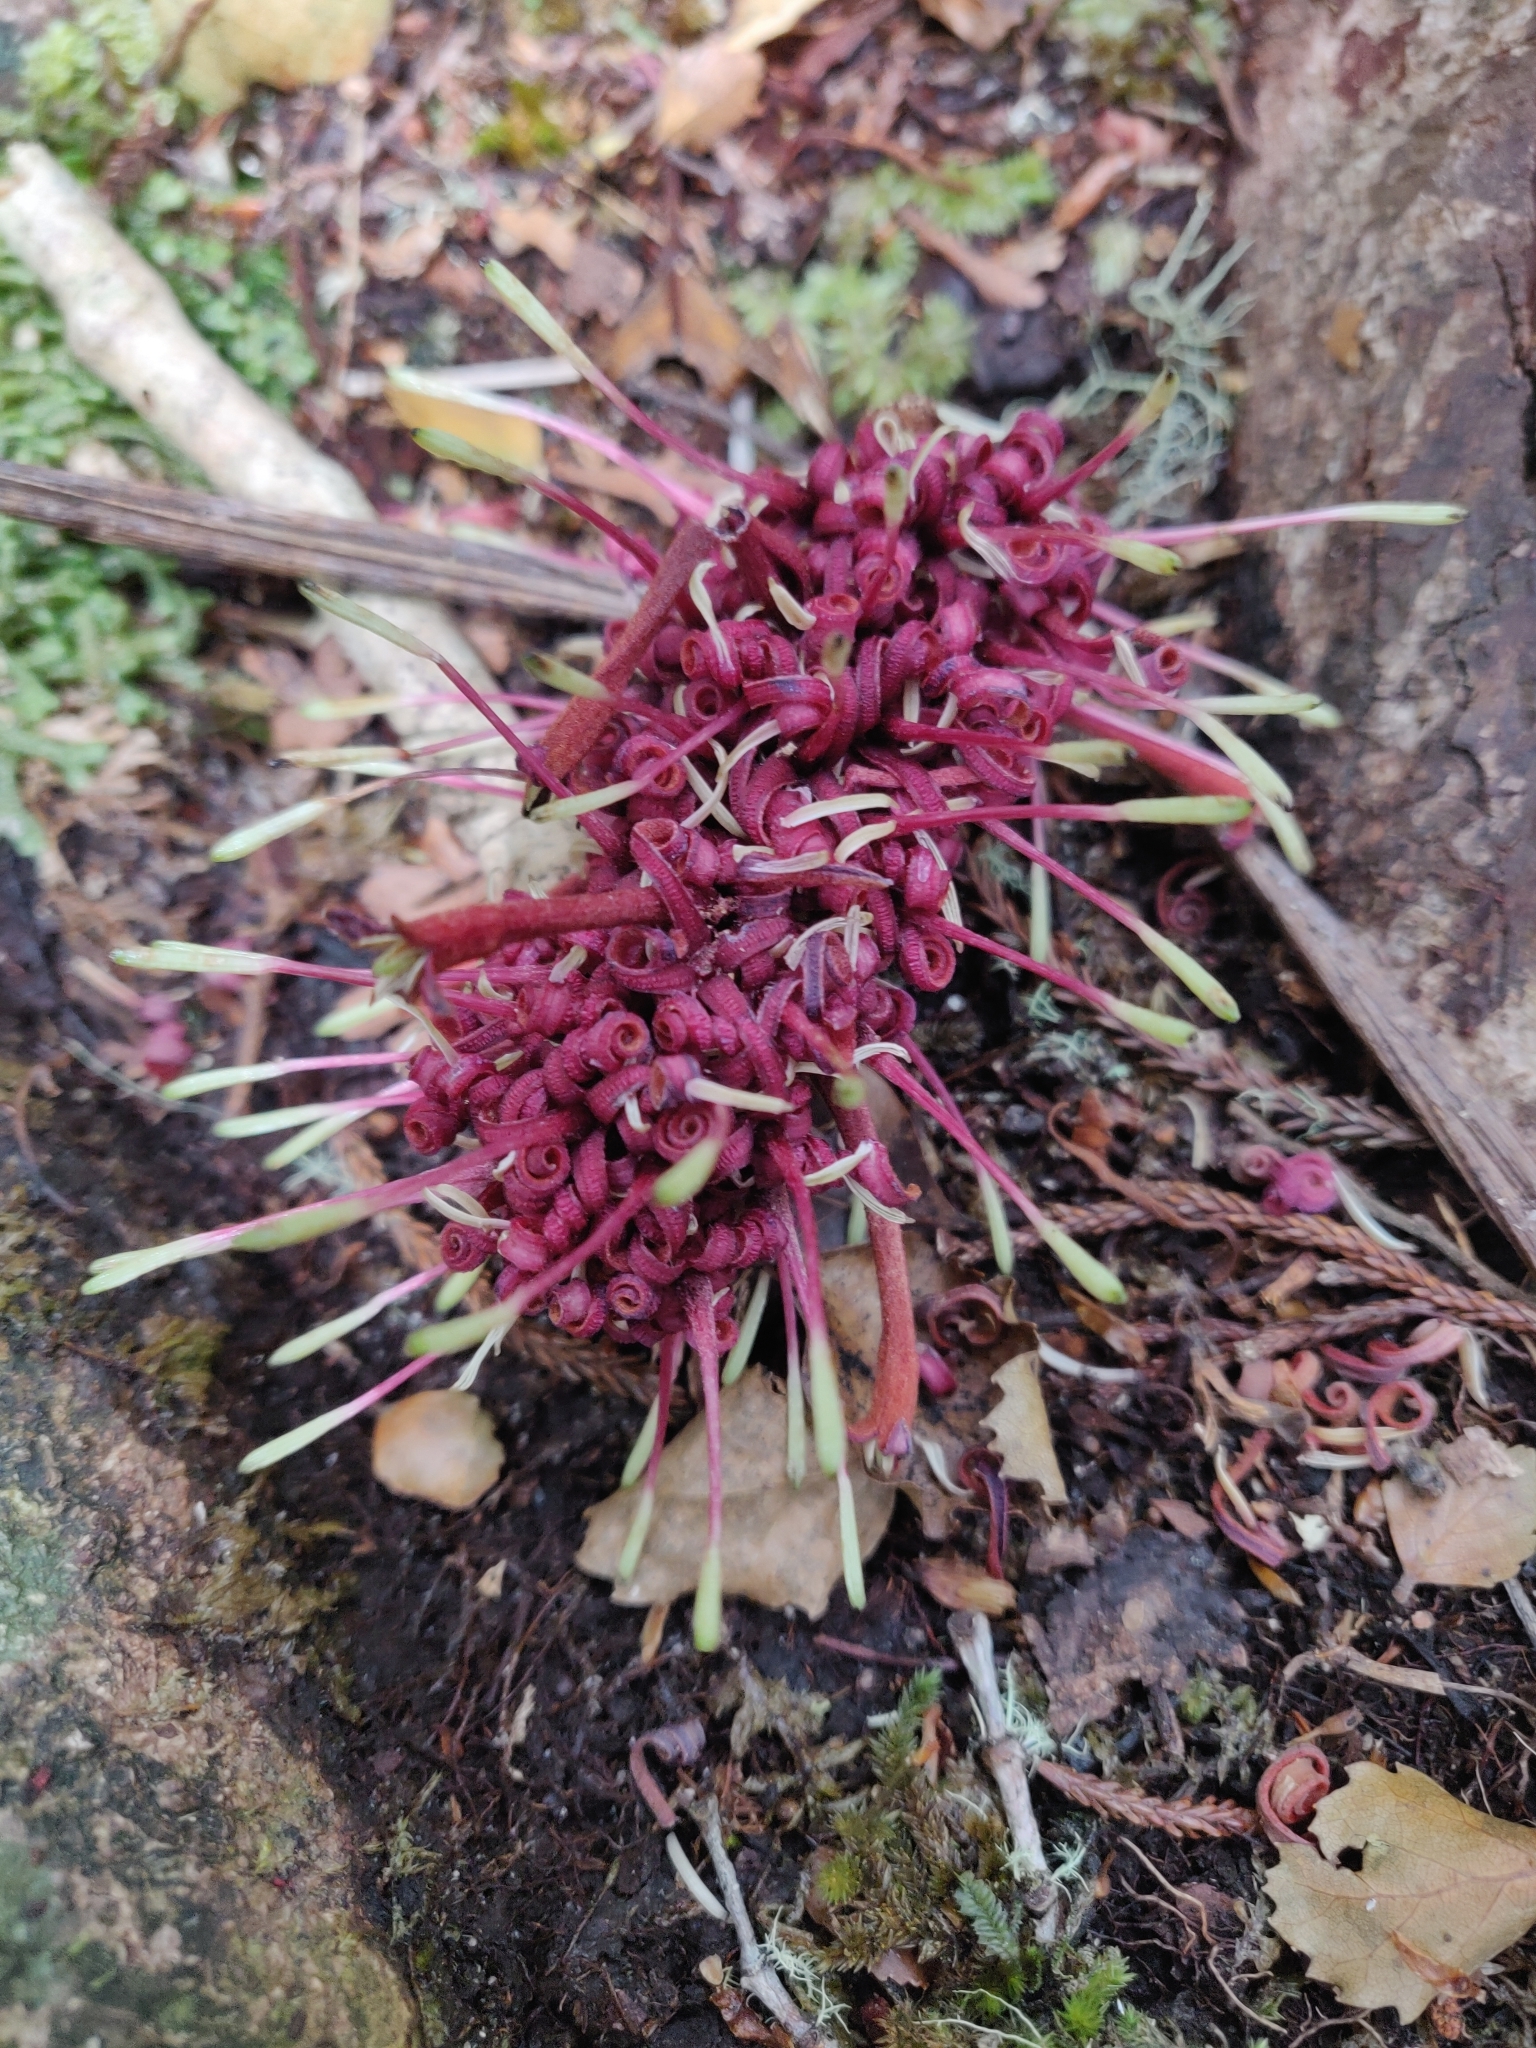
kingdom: Plantae
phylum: Tracheophyta
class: Magnoliopsida
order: Proteales
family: Proteaceae
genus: Knightia
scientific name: Knightia excelsa
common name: New zealand-honeysuckle
